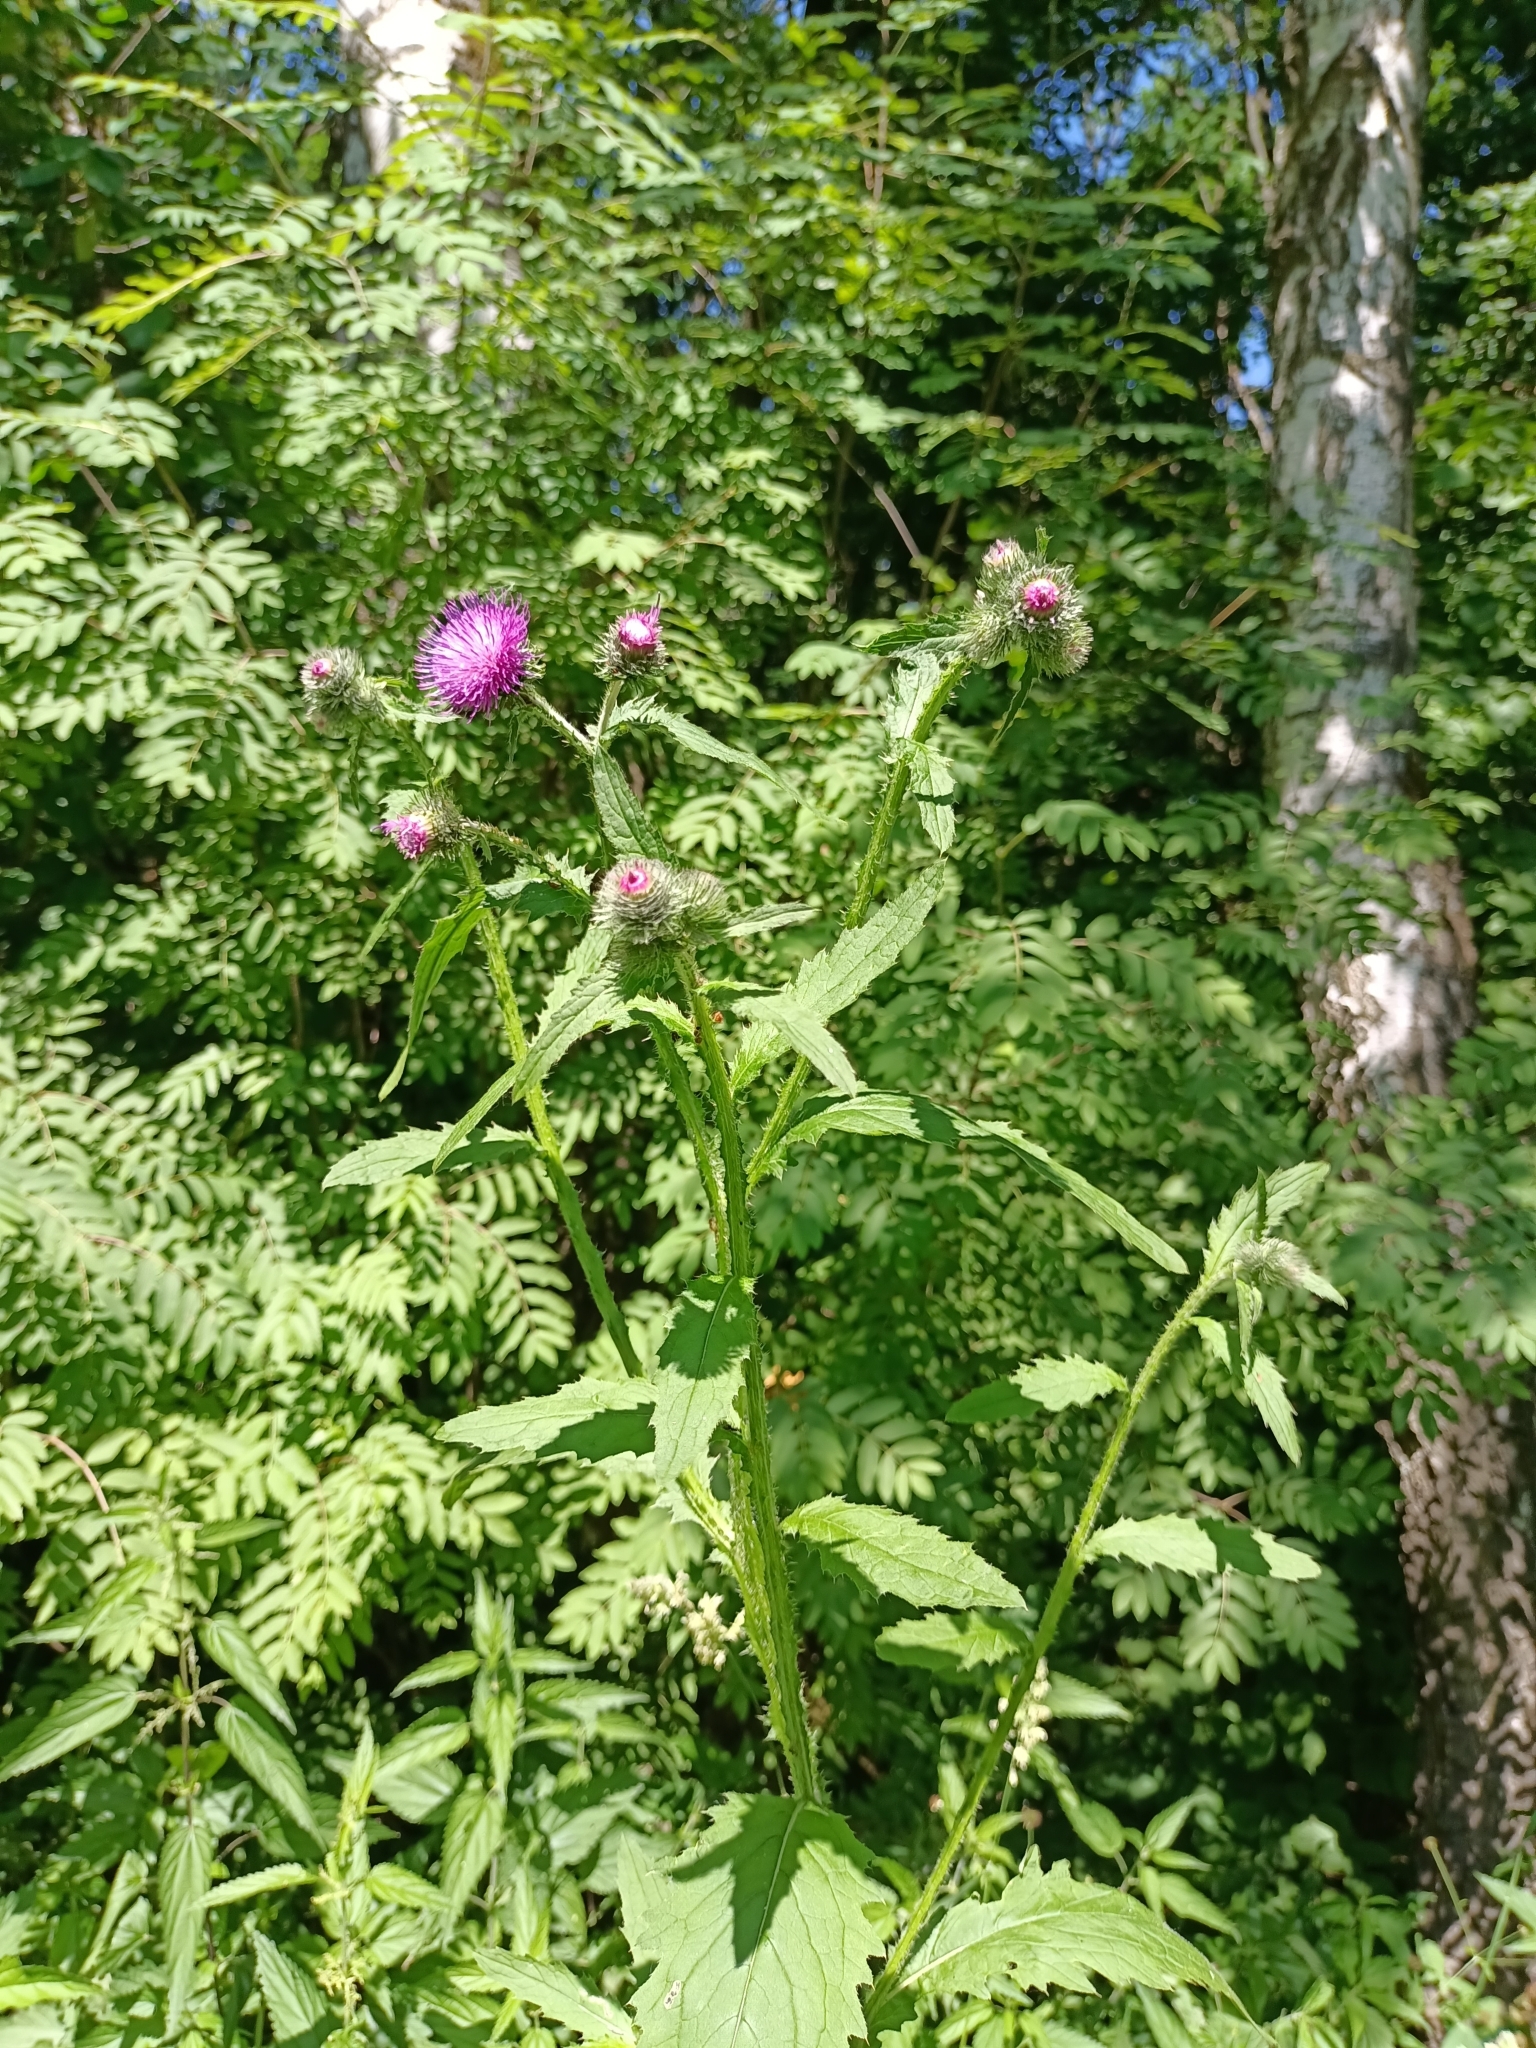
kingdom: Plantae
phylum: Tracheophyta
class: Magnoliopsida
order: Asterales
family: Asteraceae
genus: Carduus
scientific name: Carduus crispus
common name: Welted thistle
